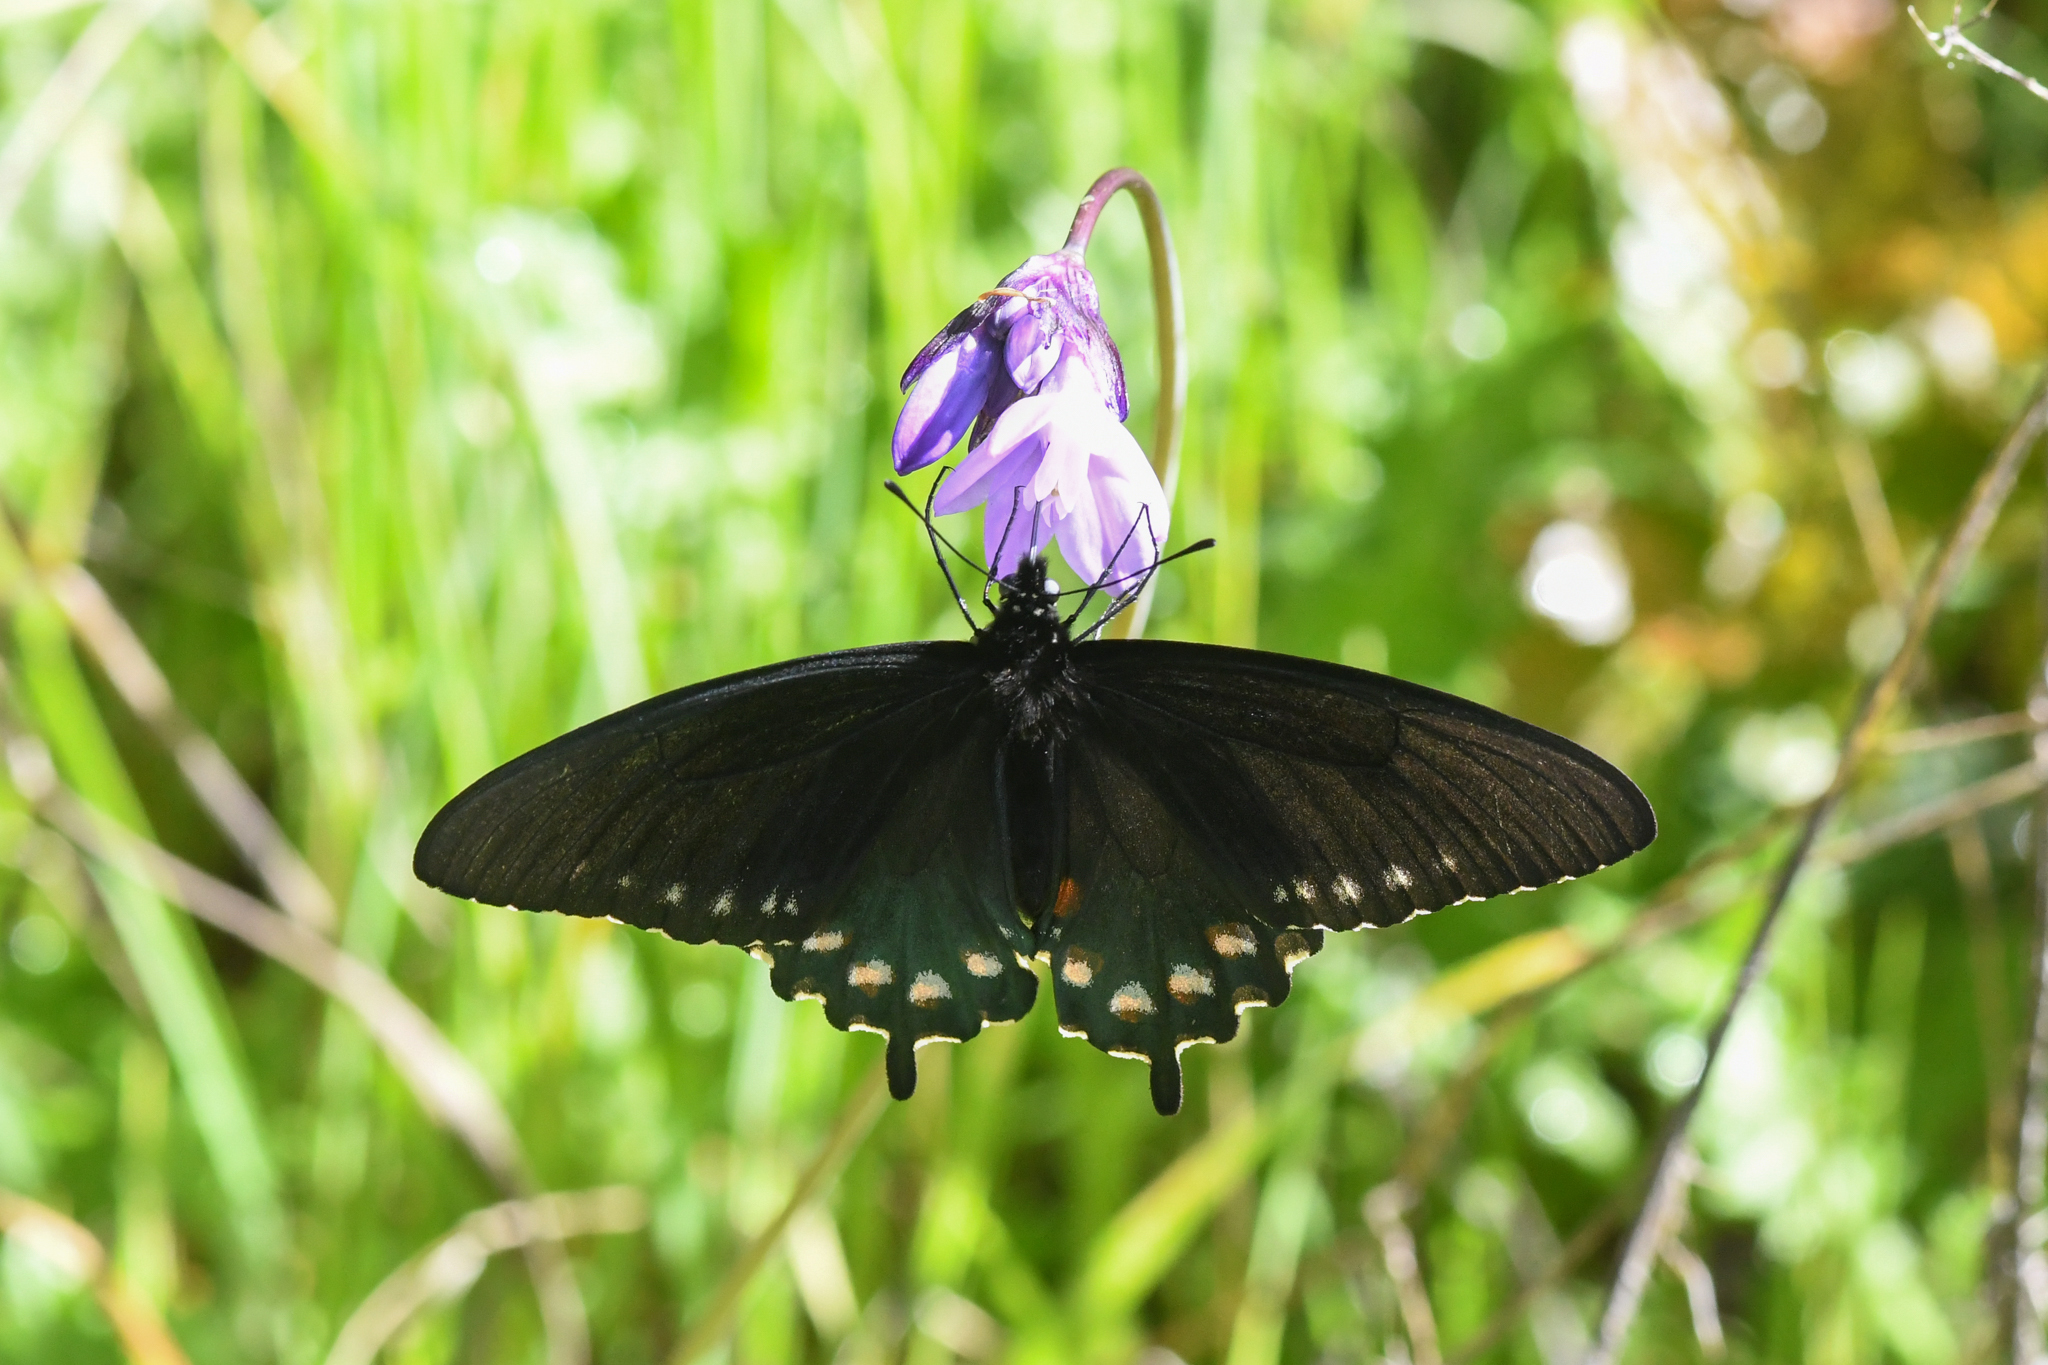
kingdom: Animalia
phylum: Arthropoda
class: Insecta
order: Lepidoptera
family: Papilionidae
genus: Battus
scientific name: Battus philenor
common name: Pipevine swallowtail
